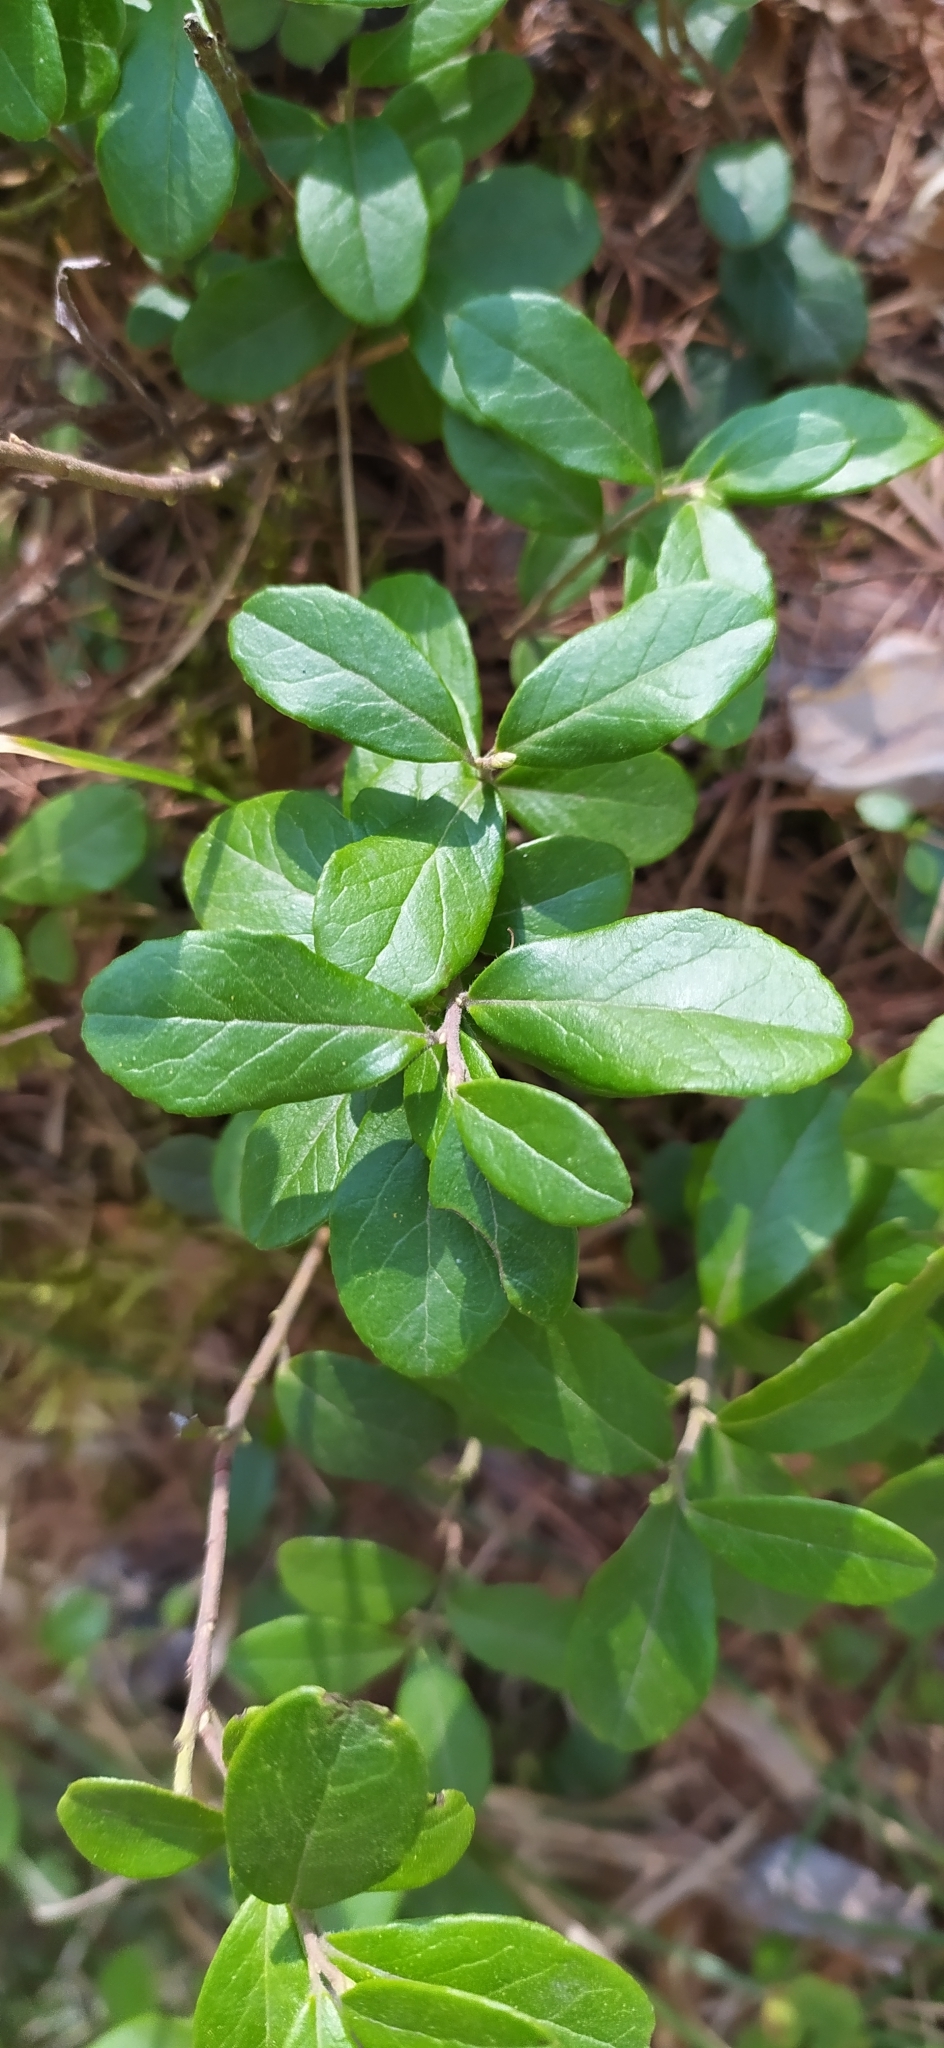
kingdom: Plantae
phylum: Tracheophyta
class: Magnoliopsida
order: Ericales
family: Ericaceae
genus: Vaccinium
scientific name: Vaccinium vitis-idaea
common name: Cowberry
